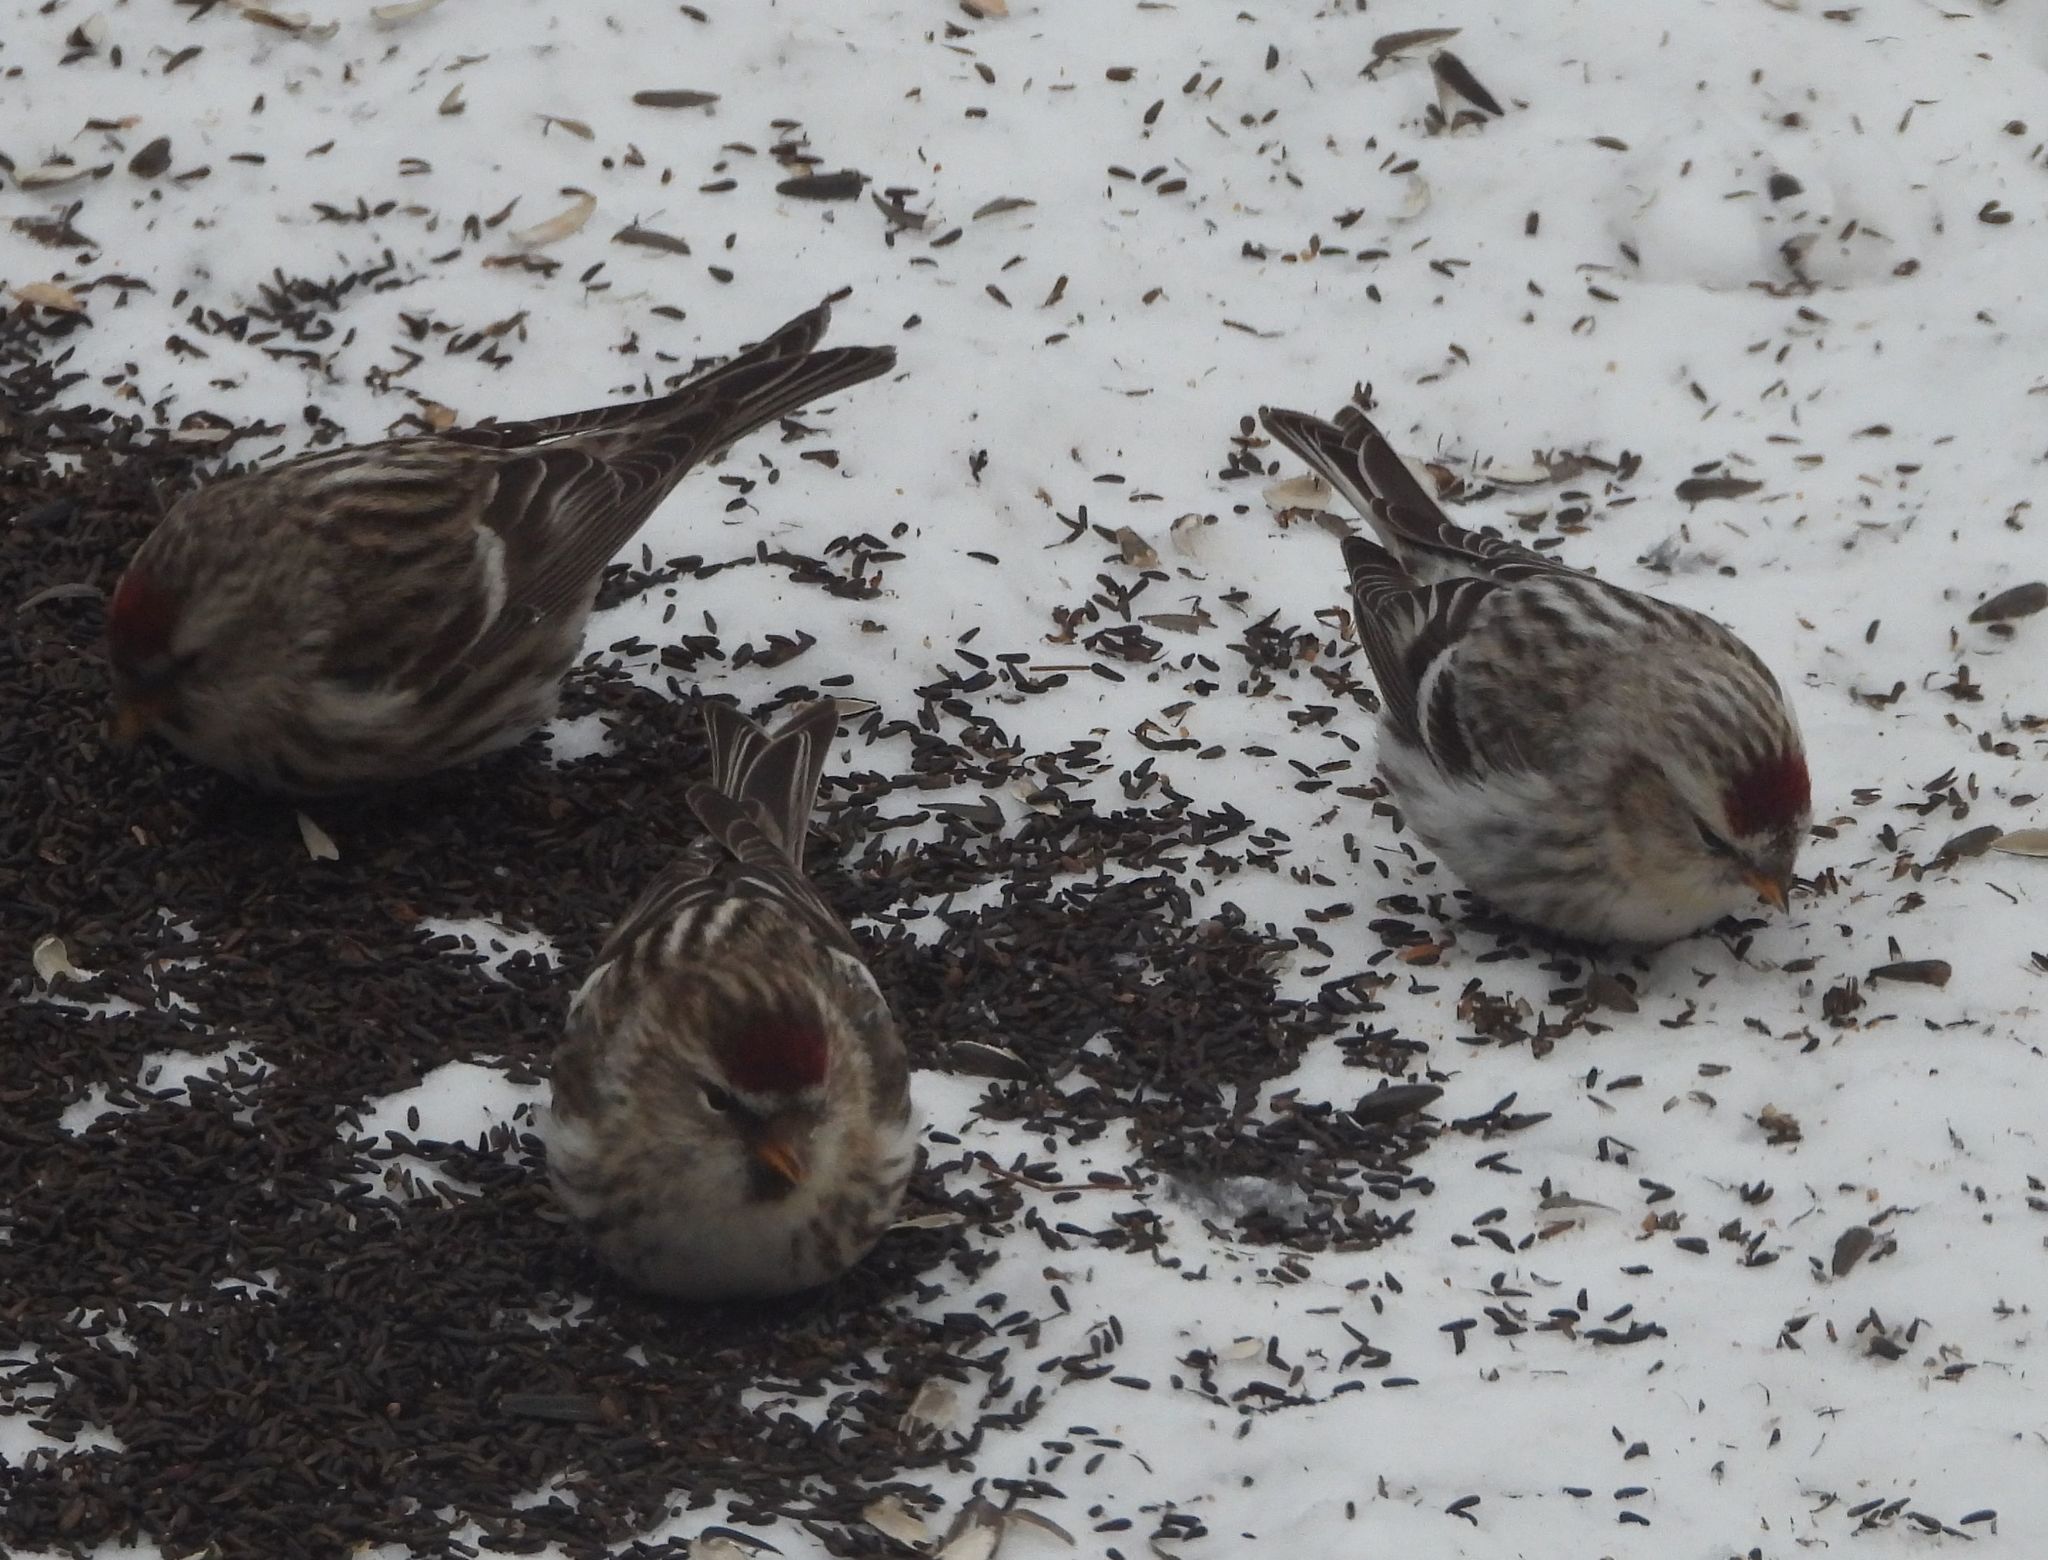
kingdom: Animalia
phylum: Chordata
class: Aves
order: Passeriformes
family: Fringillidae
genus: Acanthis
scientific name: Acanthis flammea
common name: Common redpoll
